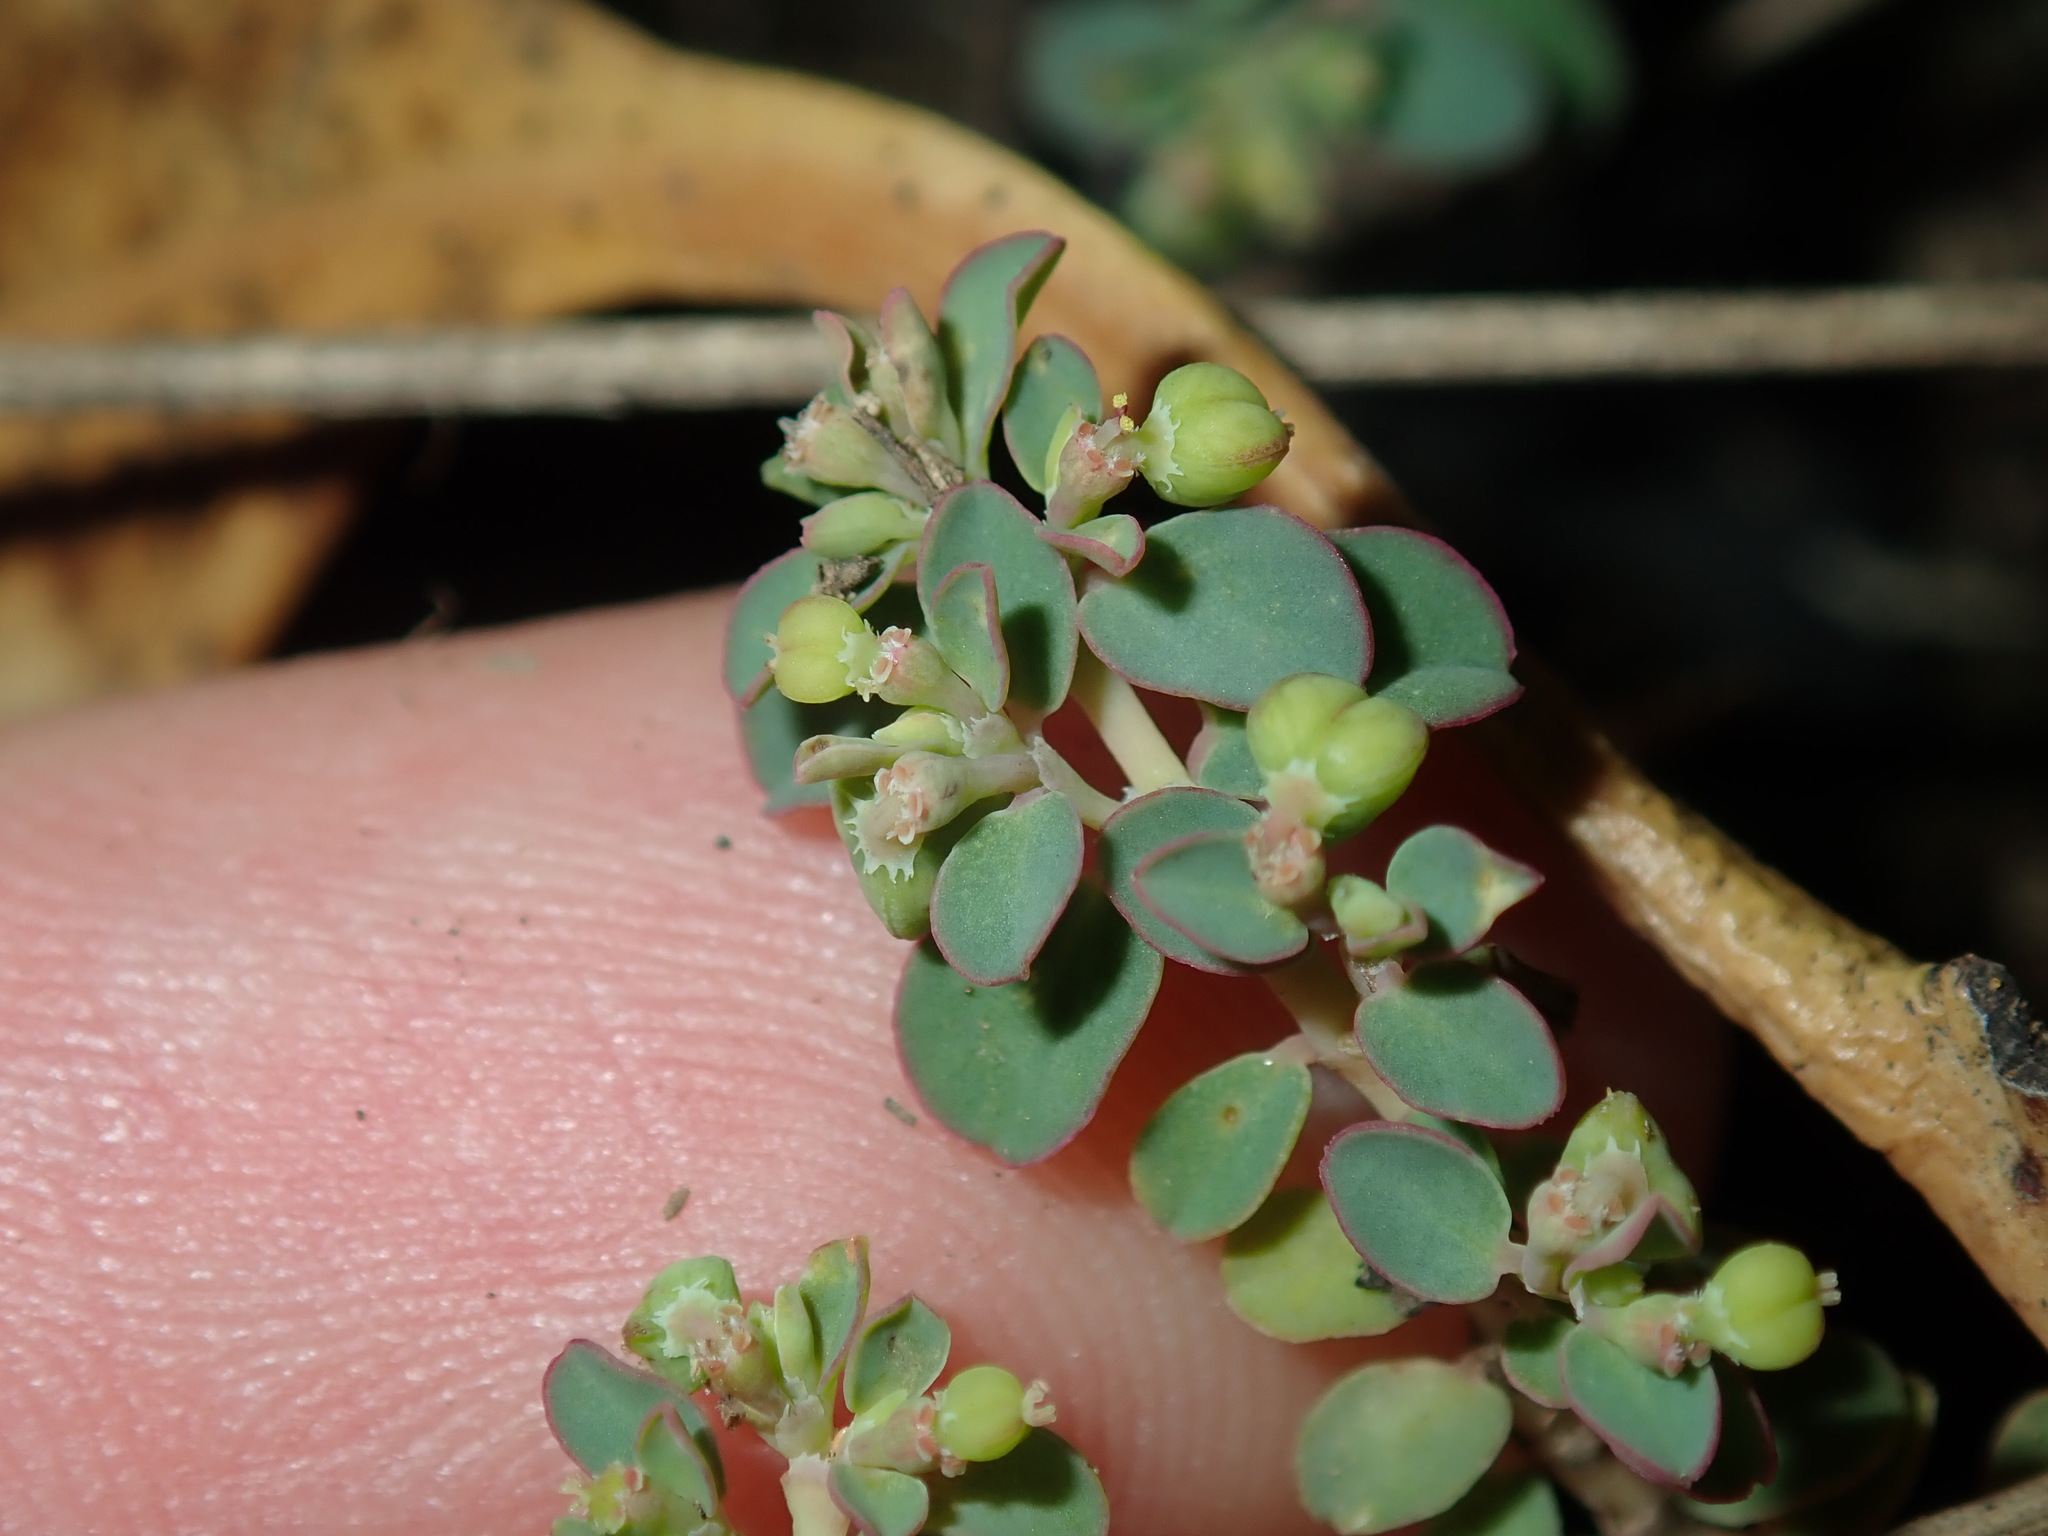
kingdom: Plantae
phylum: Tracheophyta
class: Magnoliopsida
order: Malpighiales
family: Euphorbiaceae
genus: Euphorbia
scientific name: Euphorbia serpens
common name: Matted sandmat
